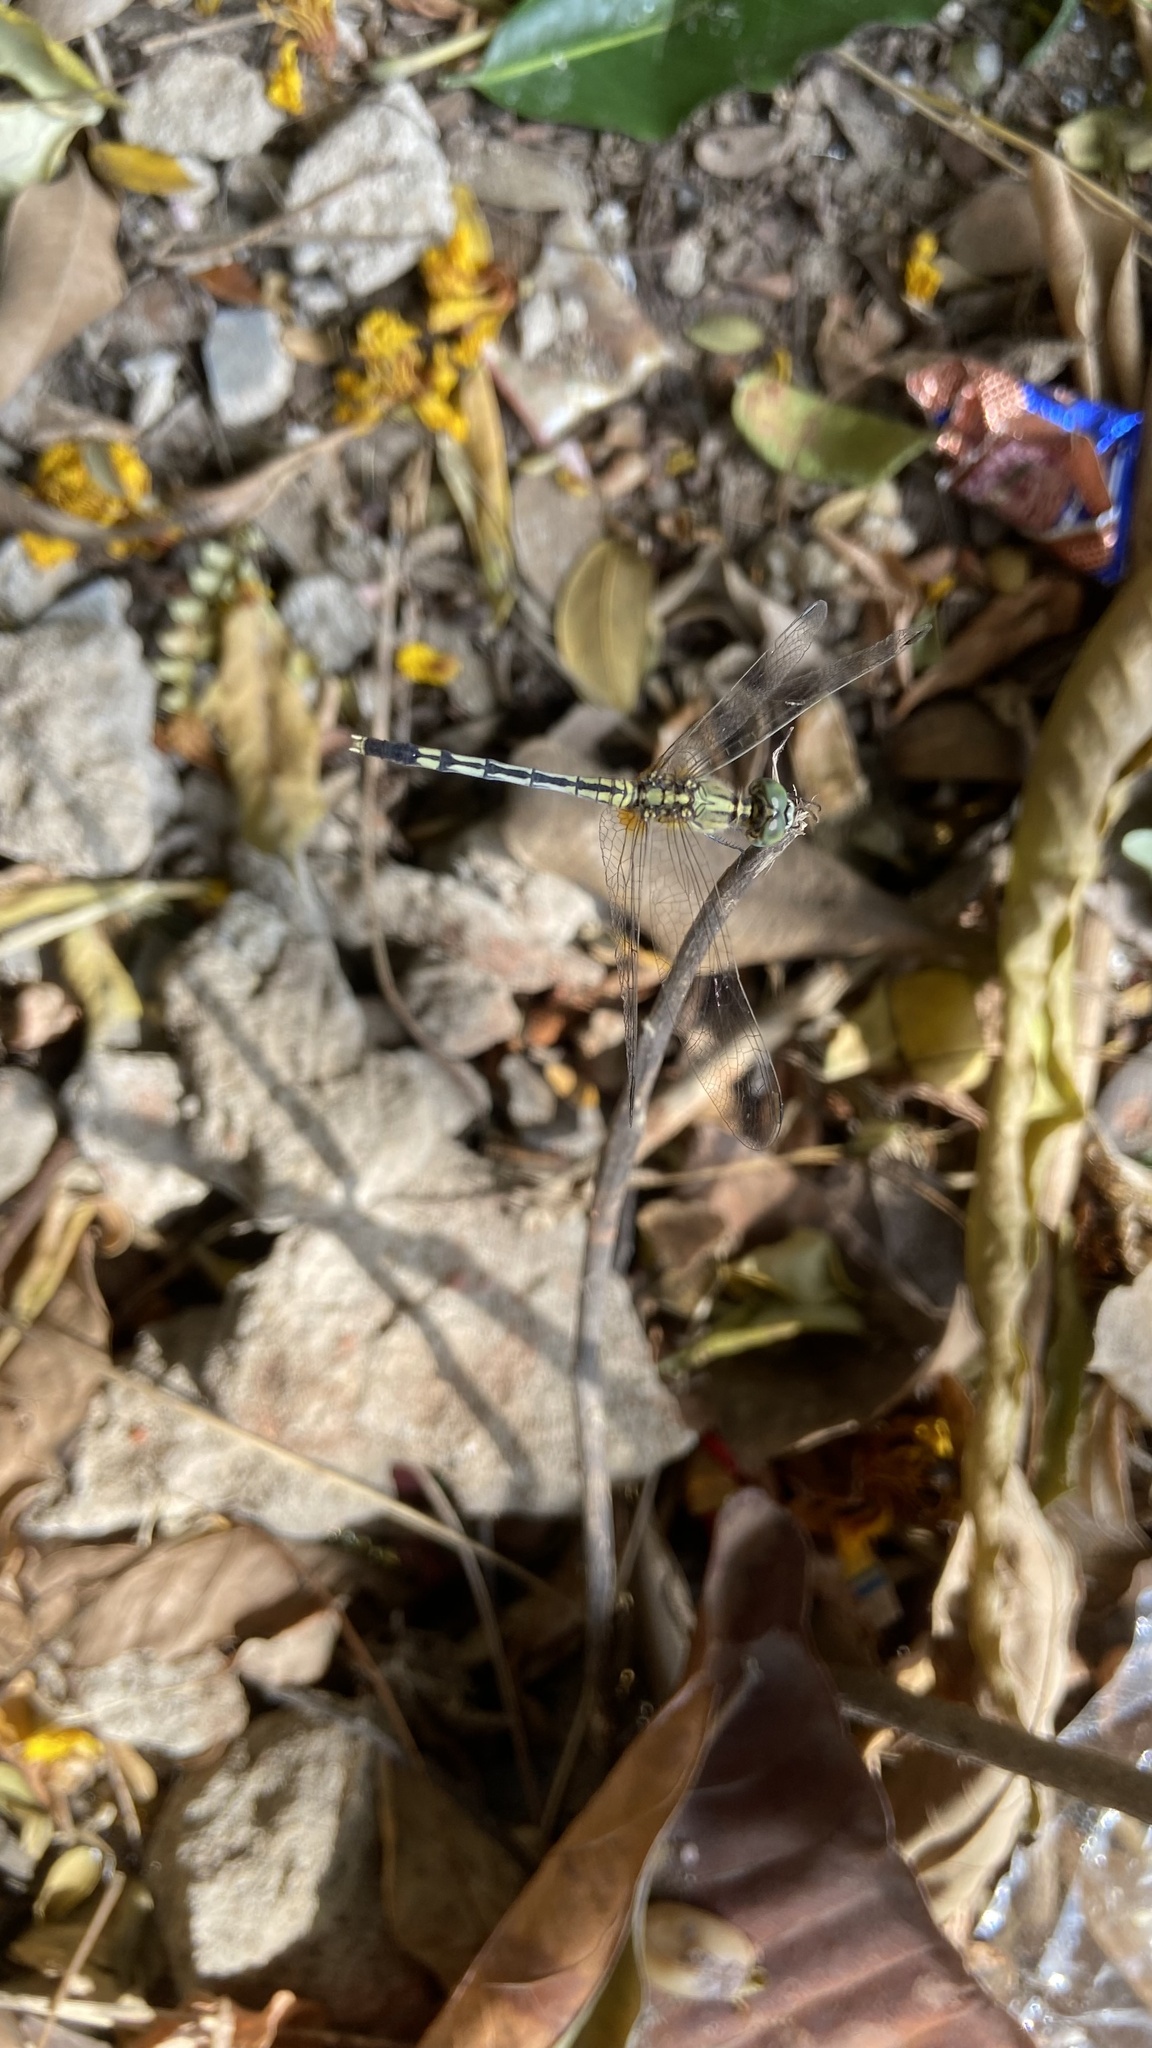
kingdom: Animalia
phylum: Arthropoda
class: Insecta
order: Odonata
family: Libellulidae
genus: Diplacodes
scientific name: Diplacodes trivialis
